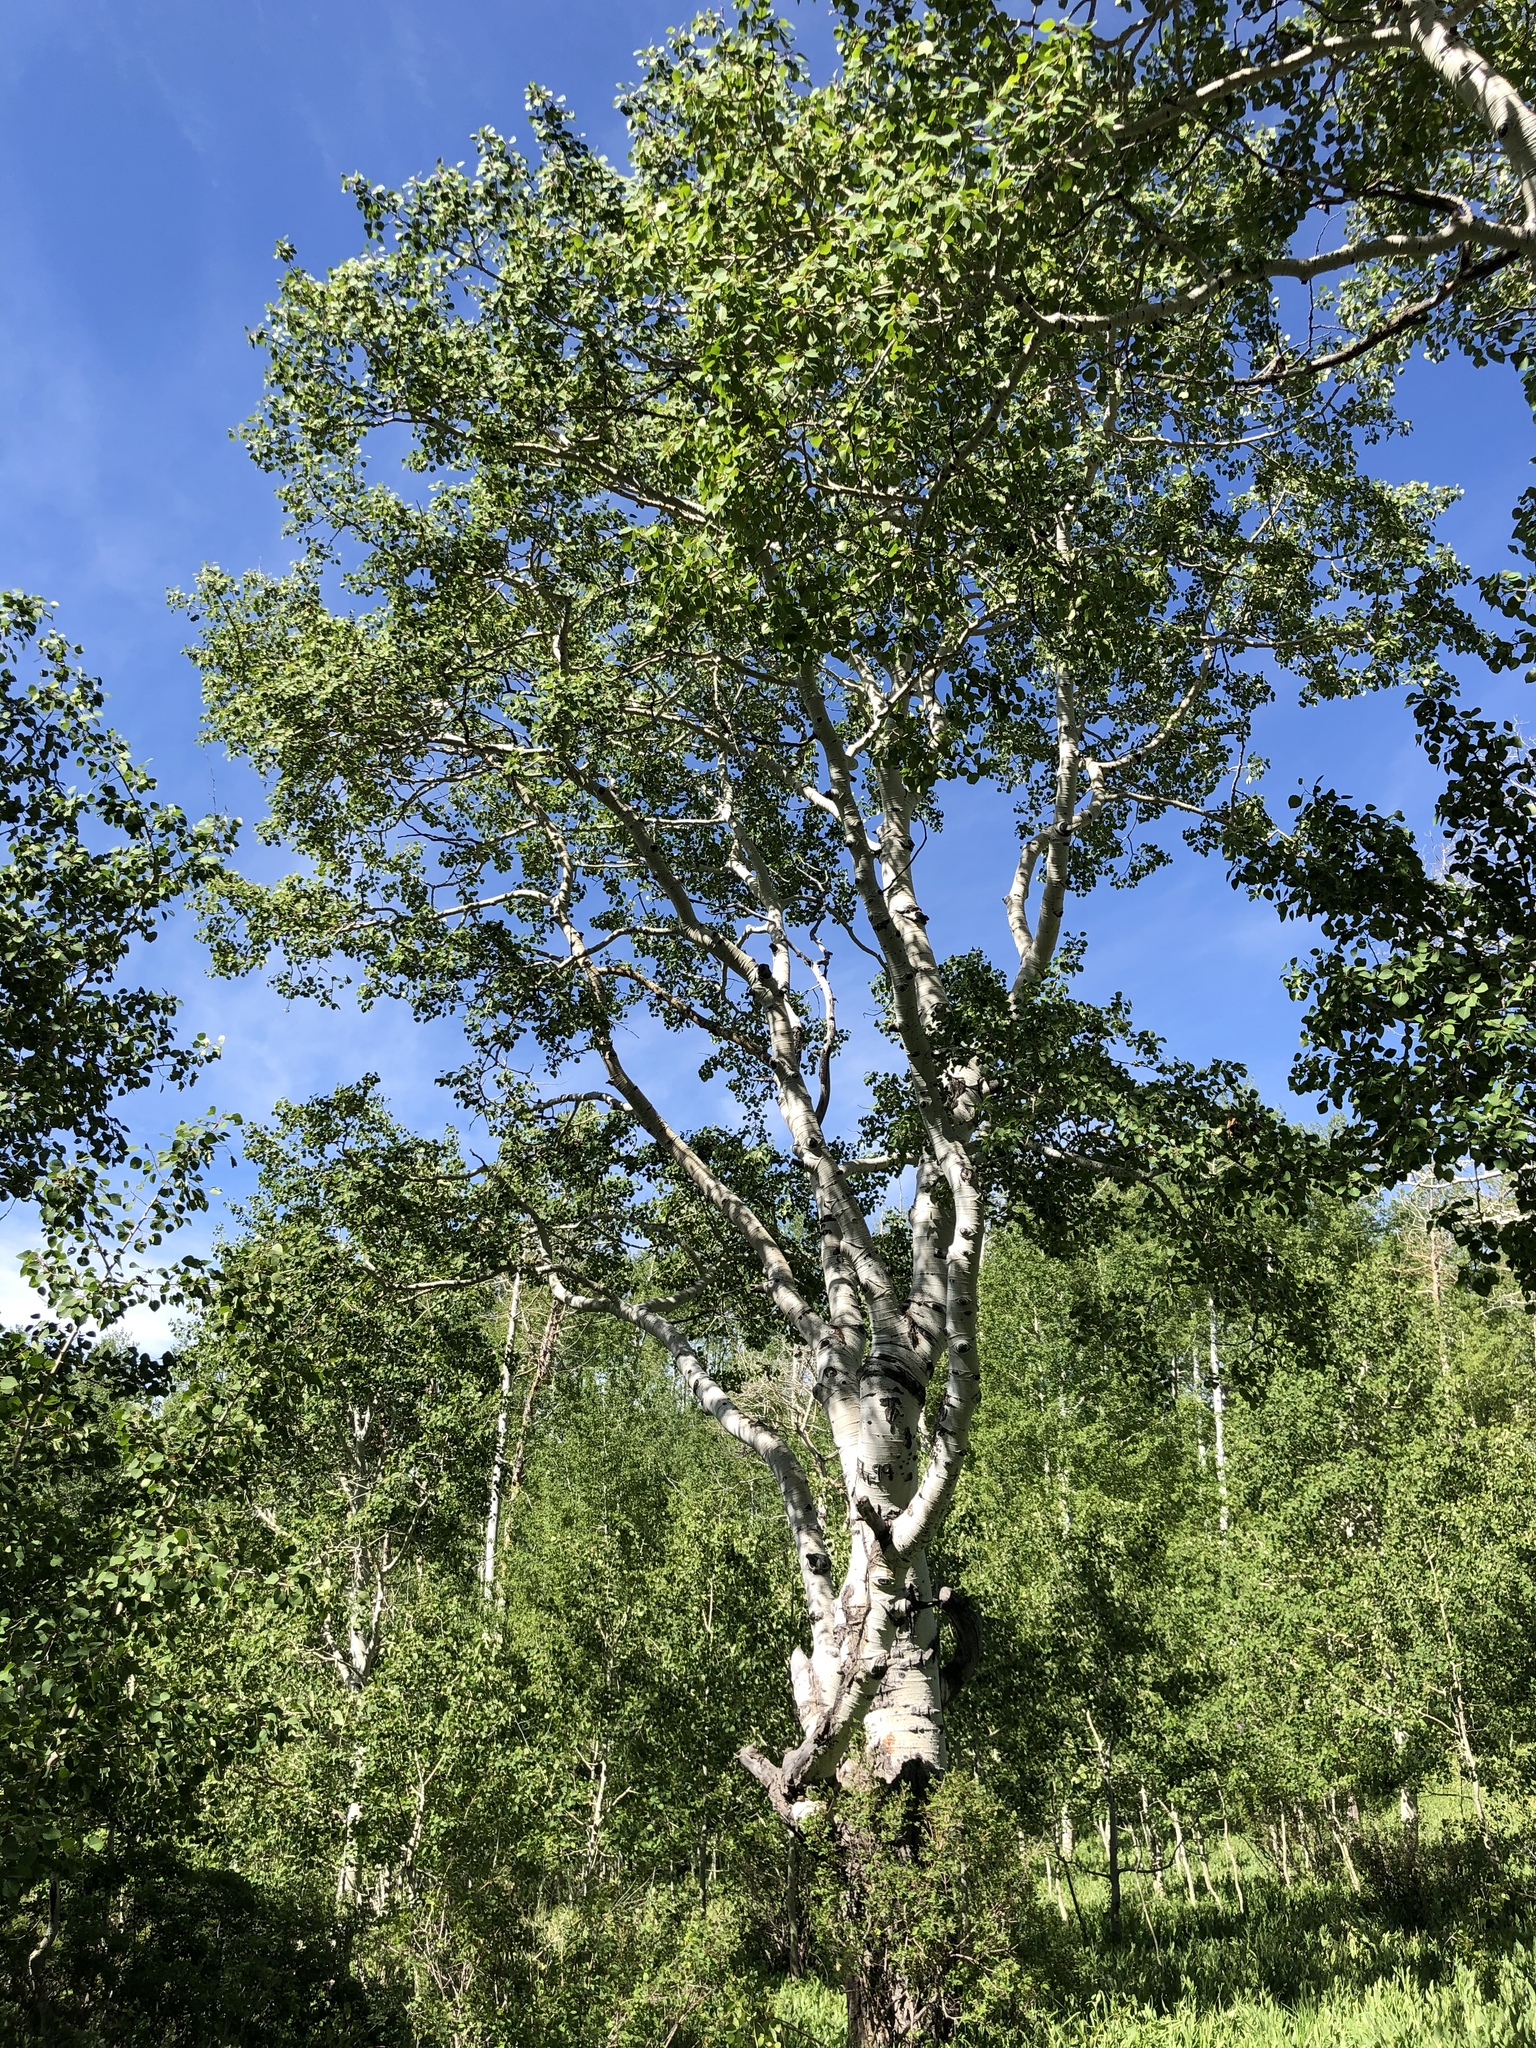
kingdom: Plantae
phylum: Tracheophyta
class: Magnoliopsida
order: Malpighiales
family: Salicaceae
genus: Populus
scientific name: Populus tremuloides
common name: Quaking aspen
